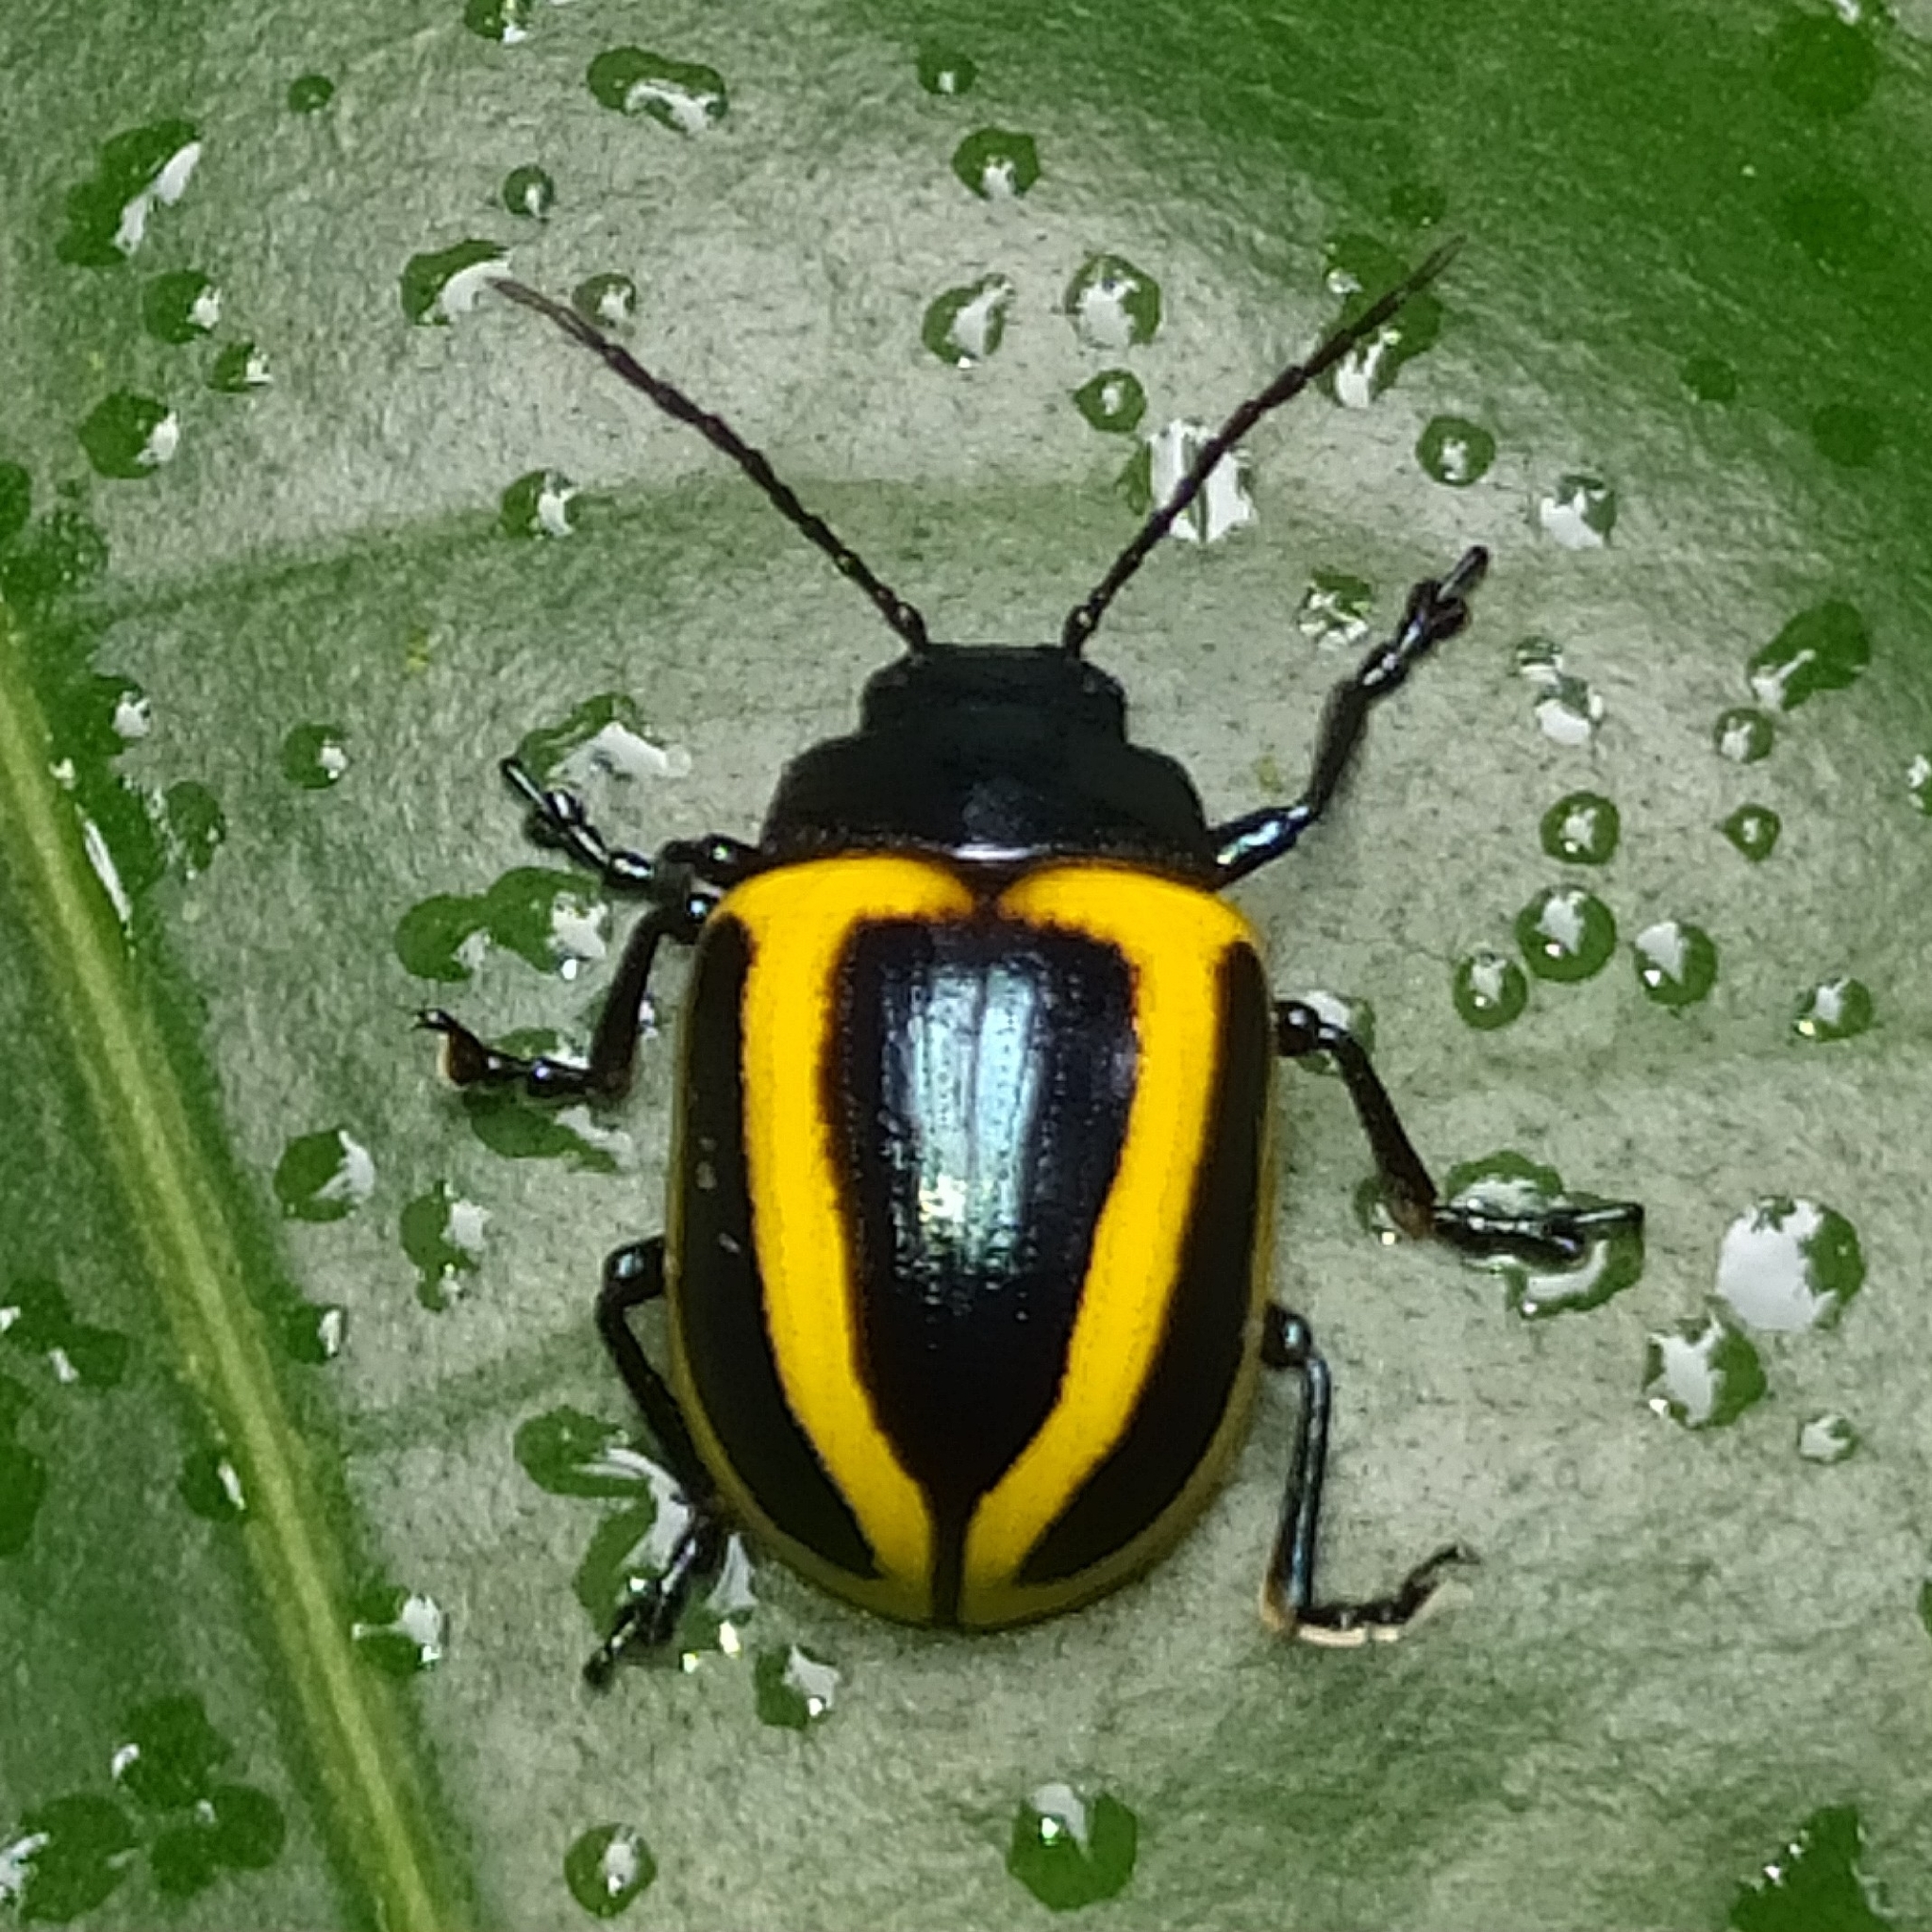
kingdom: Animalia
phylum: Arthropoda
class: Insecta
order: Coleoptera
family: Chrysomelidae
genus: Proseicela
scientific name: Proseicela vittata
